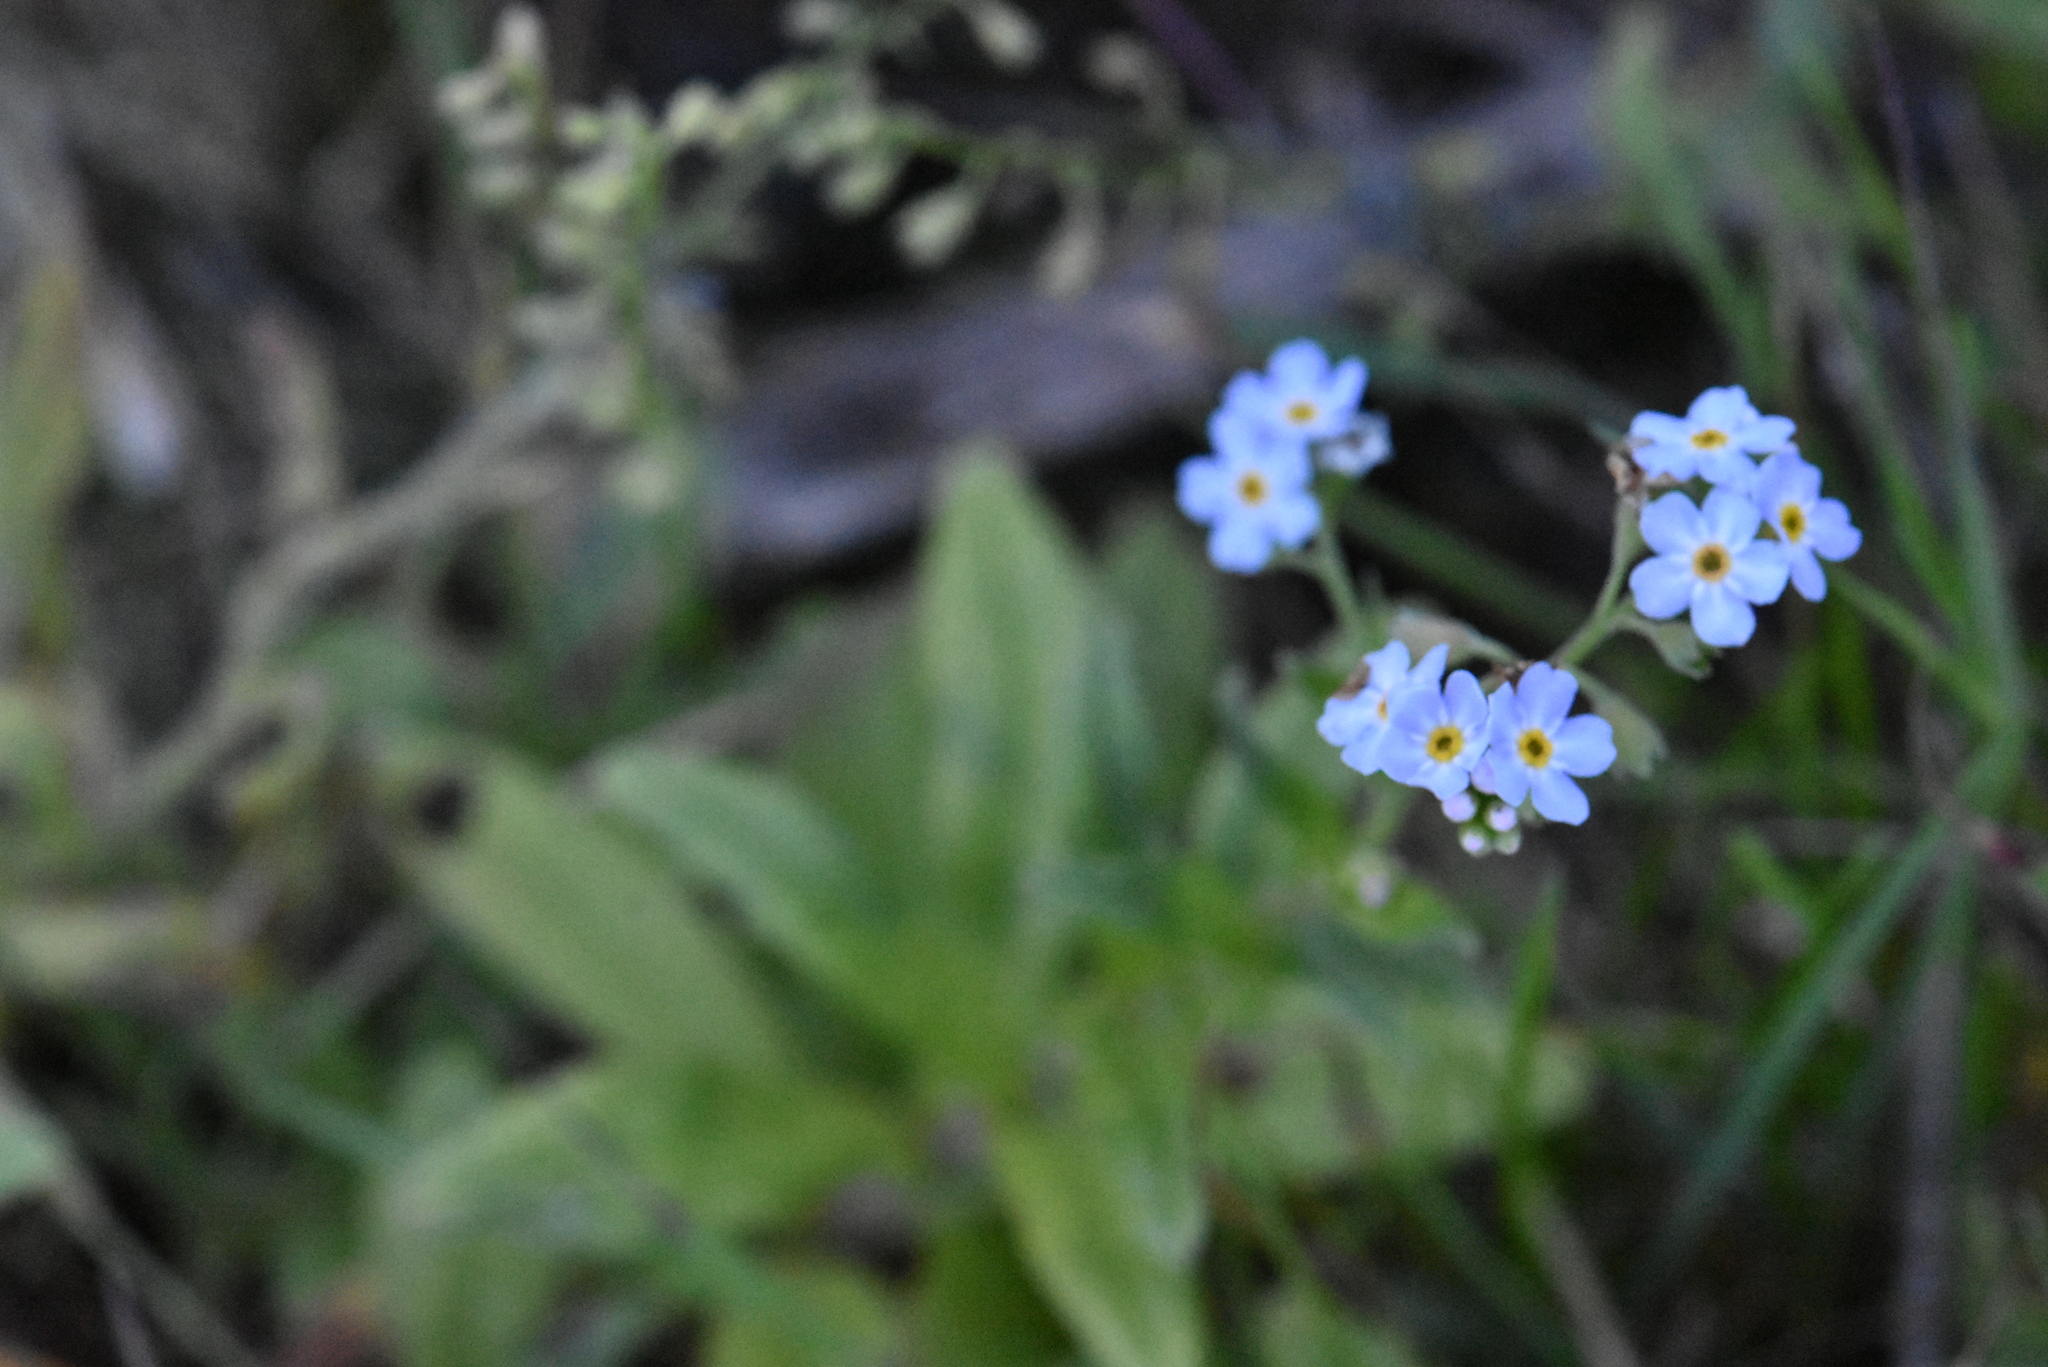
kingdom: Plantae
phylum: Tracheophyta
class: Magnoliopsida
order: Boraginales
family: Boraginaceae
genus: Myosotis
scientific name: Myosotis scorpioides
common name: Water forget-me-not
